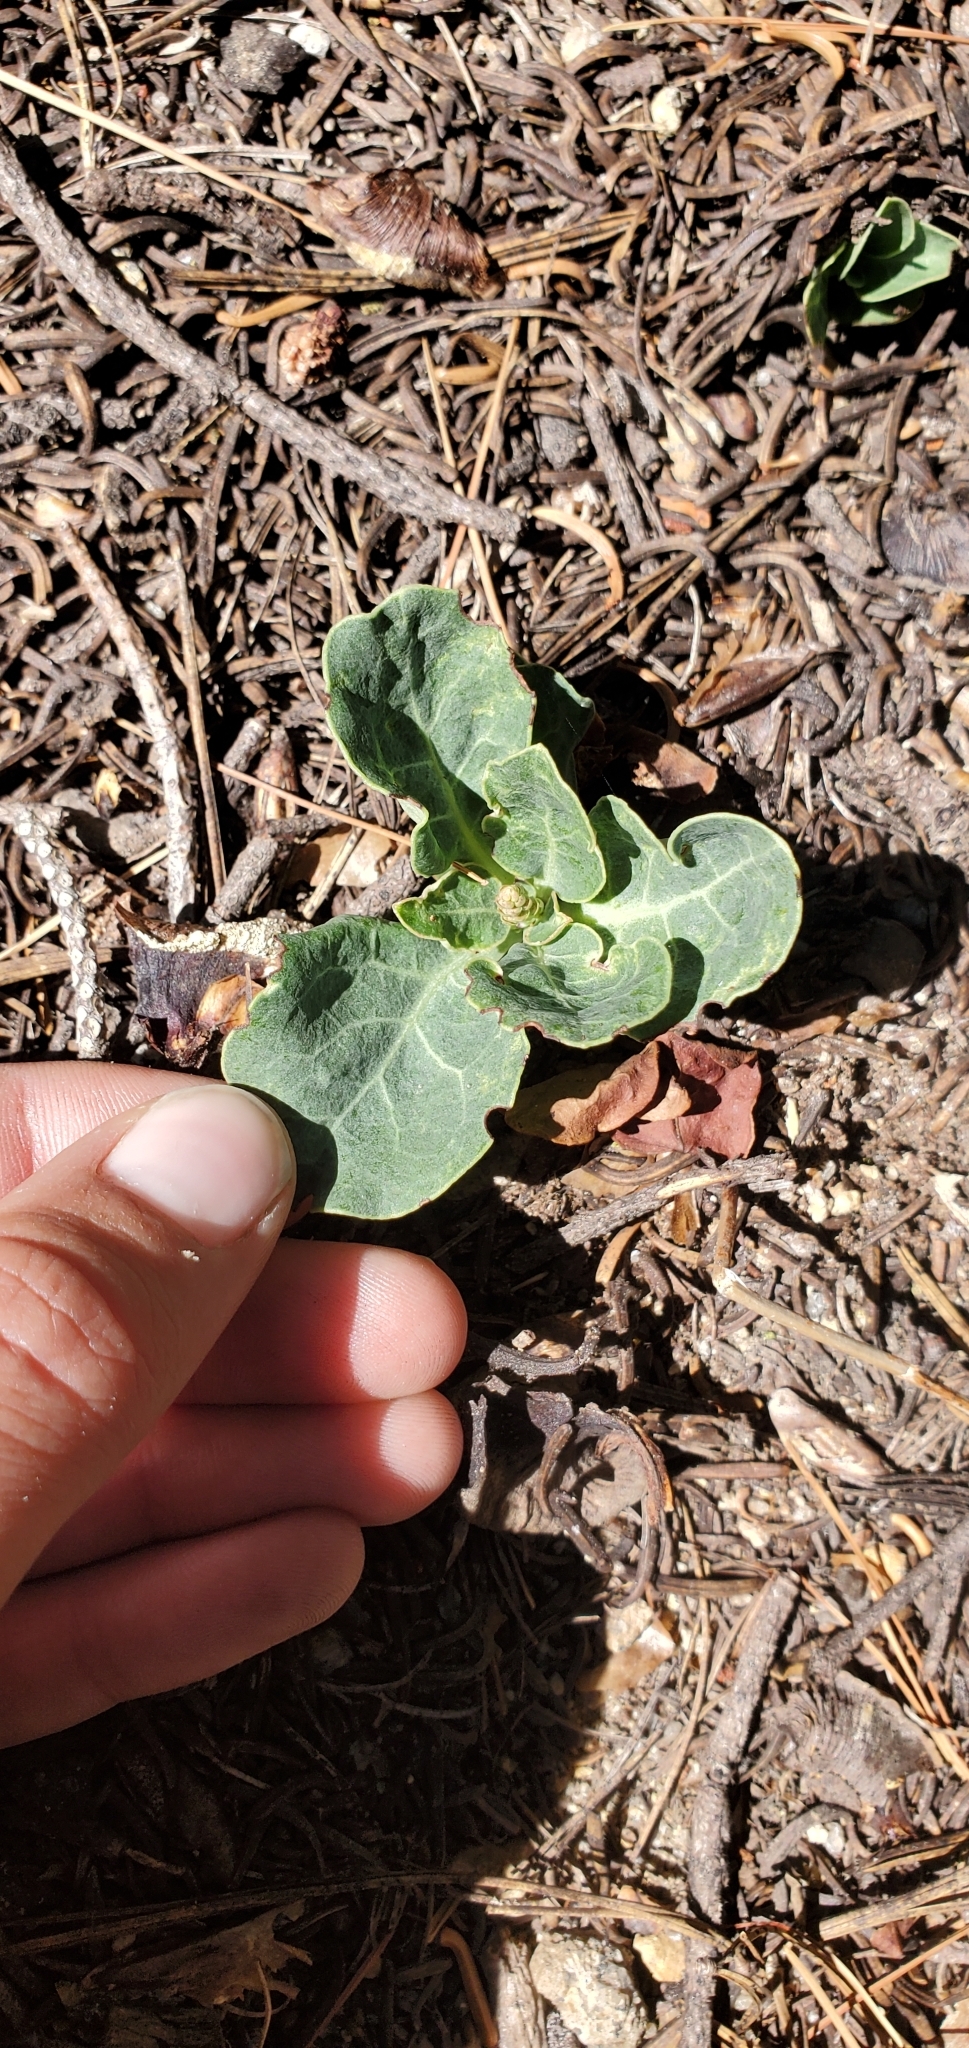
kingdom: Plantae
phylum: Tracheophyta
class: Magnoliopsida
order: Ericales
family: Ericaceae
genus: Pyrola
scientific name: Pyrola dentata
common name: Tooth-leaved wintergreen
